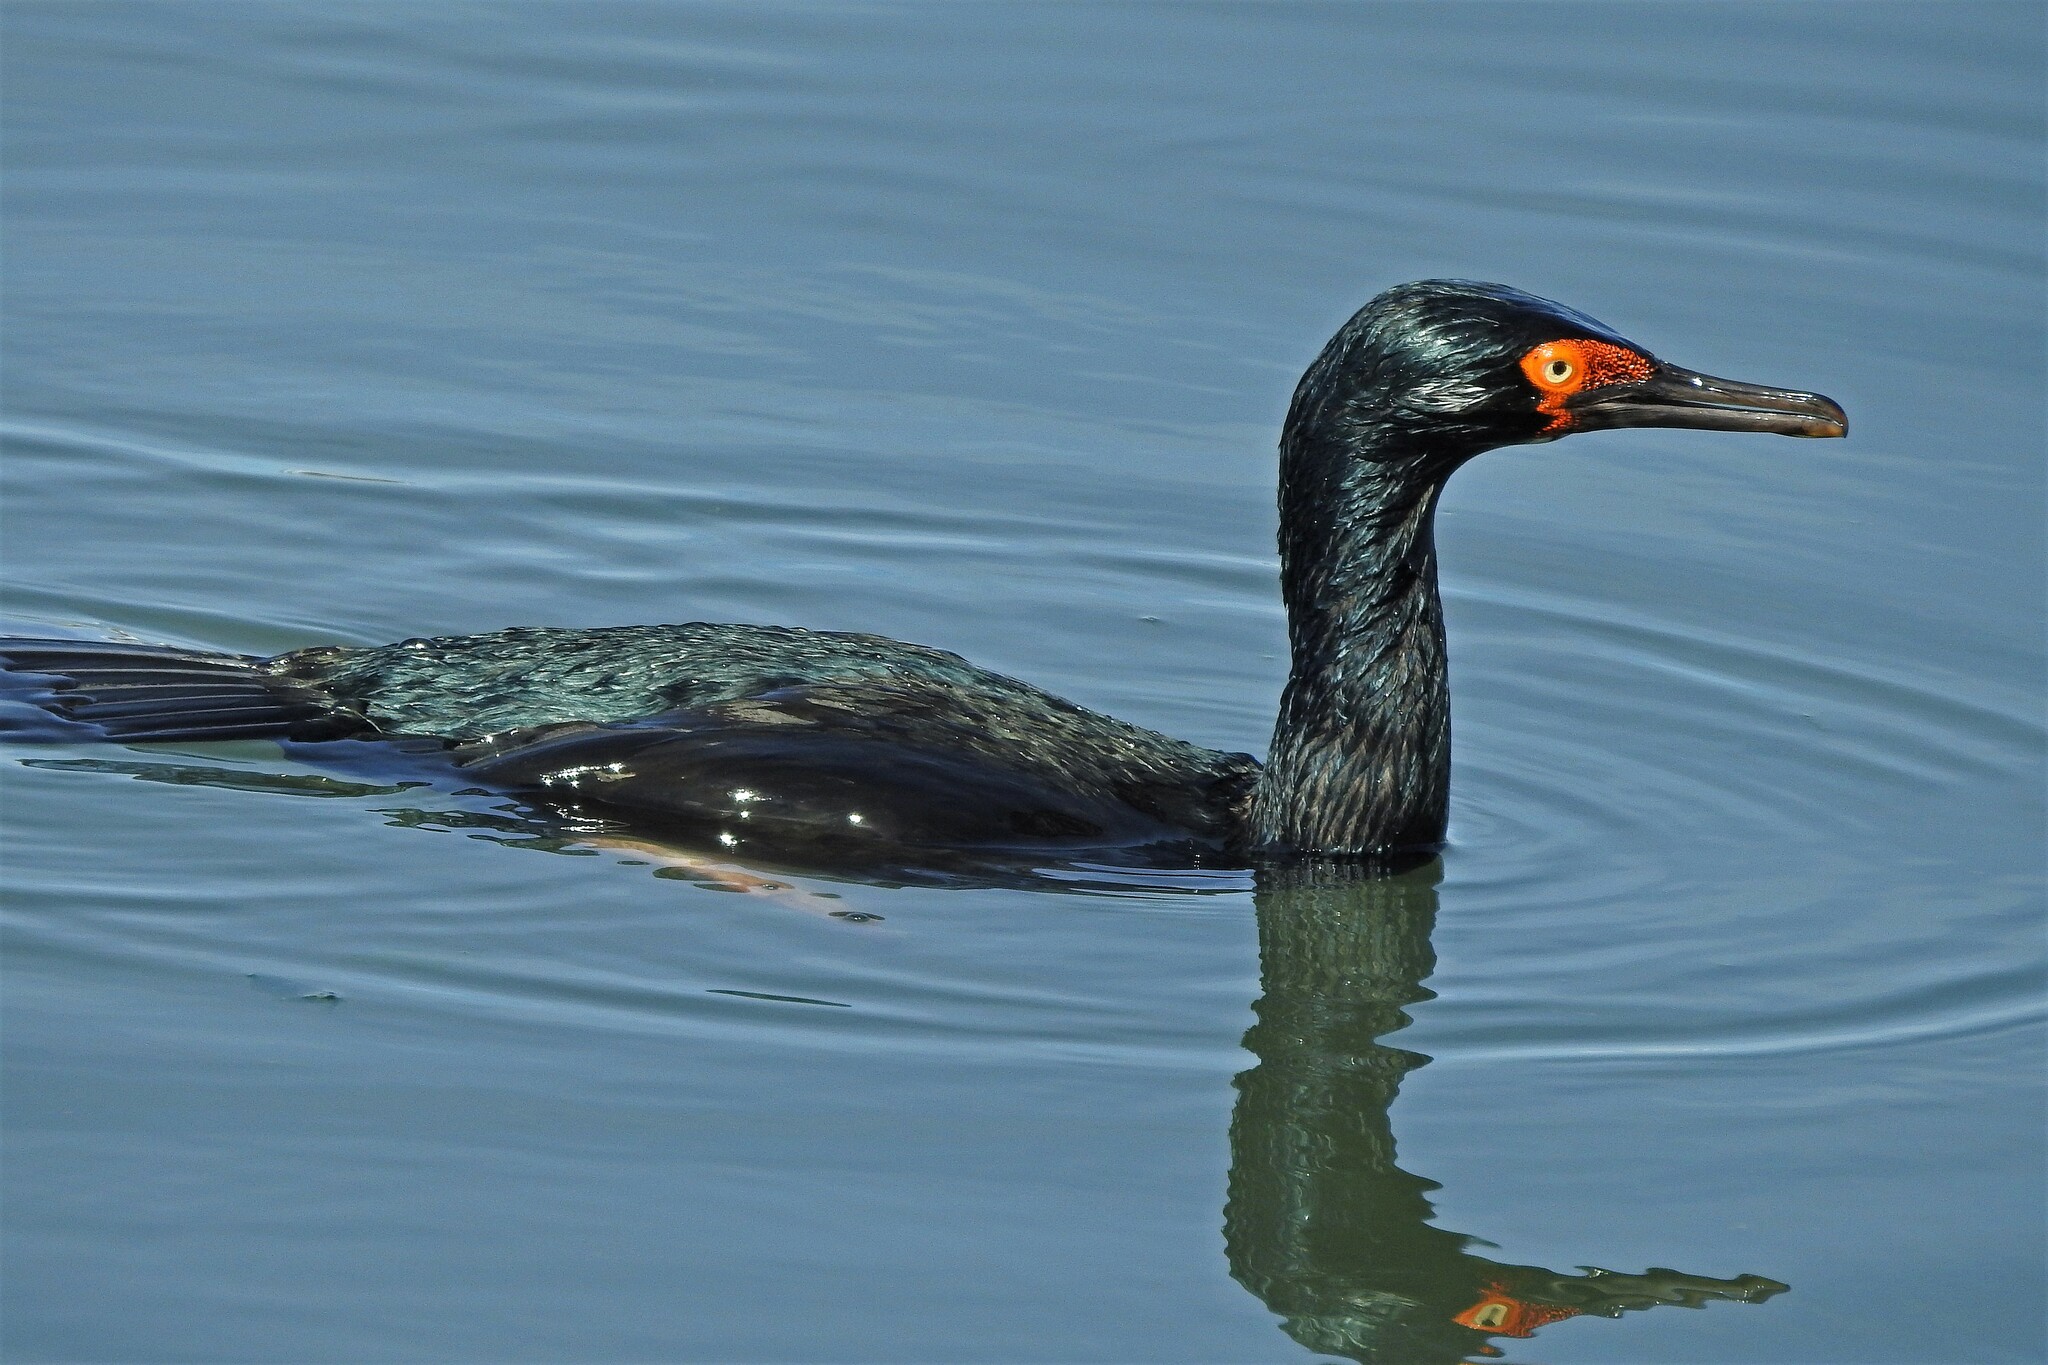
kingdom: Animalia
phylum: Chordata
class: Aves
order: Suliformes
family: Phalacrocoracidae
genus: Phalacrocorax
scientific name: Phalacrocorax magellanicus
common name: Rock shag
